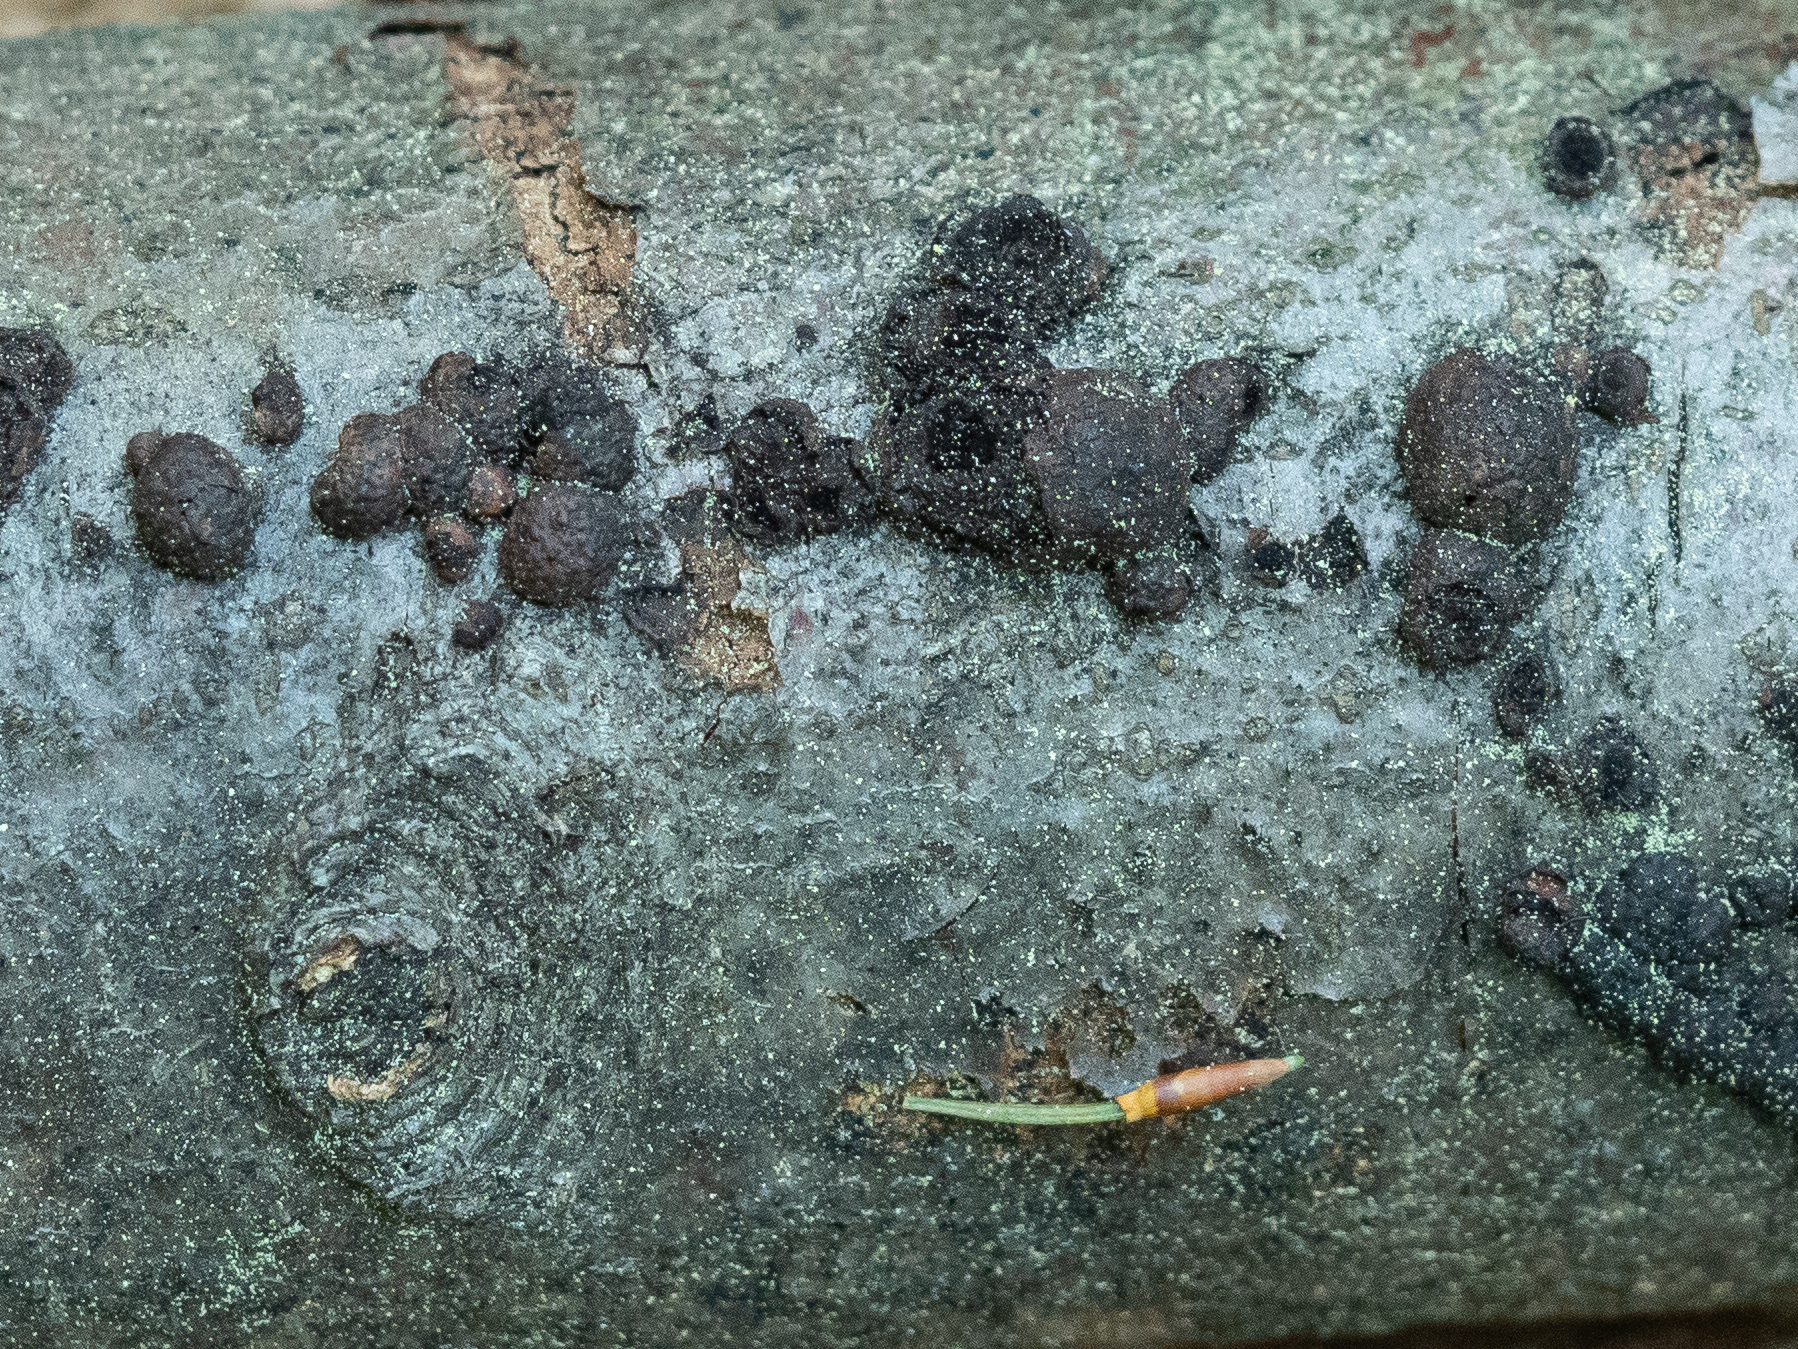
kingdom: Fungi
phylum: Ascomycota
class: Sordariomycetes
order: Xylariales
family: Hypoxylaceae
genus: Hypoxylon
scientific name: Hypoxylon fragiforme
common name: Beech woodwart
